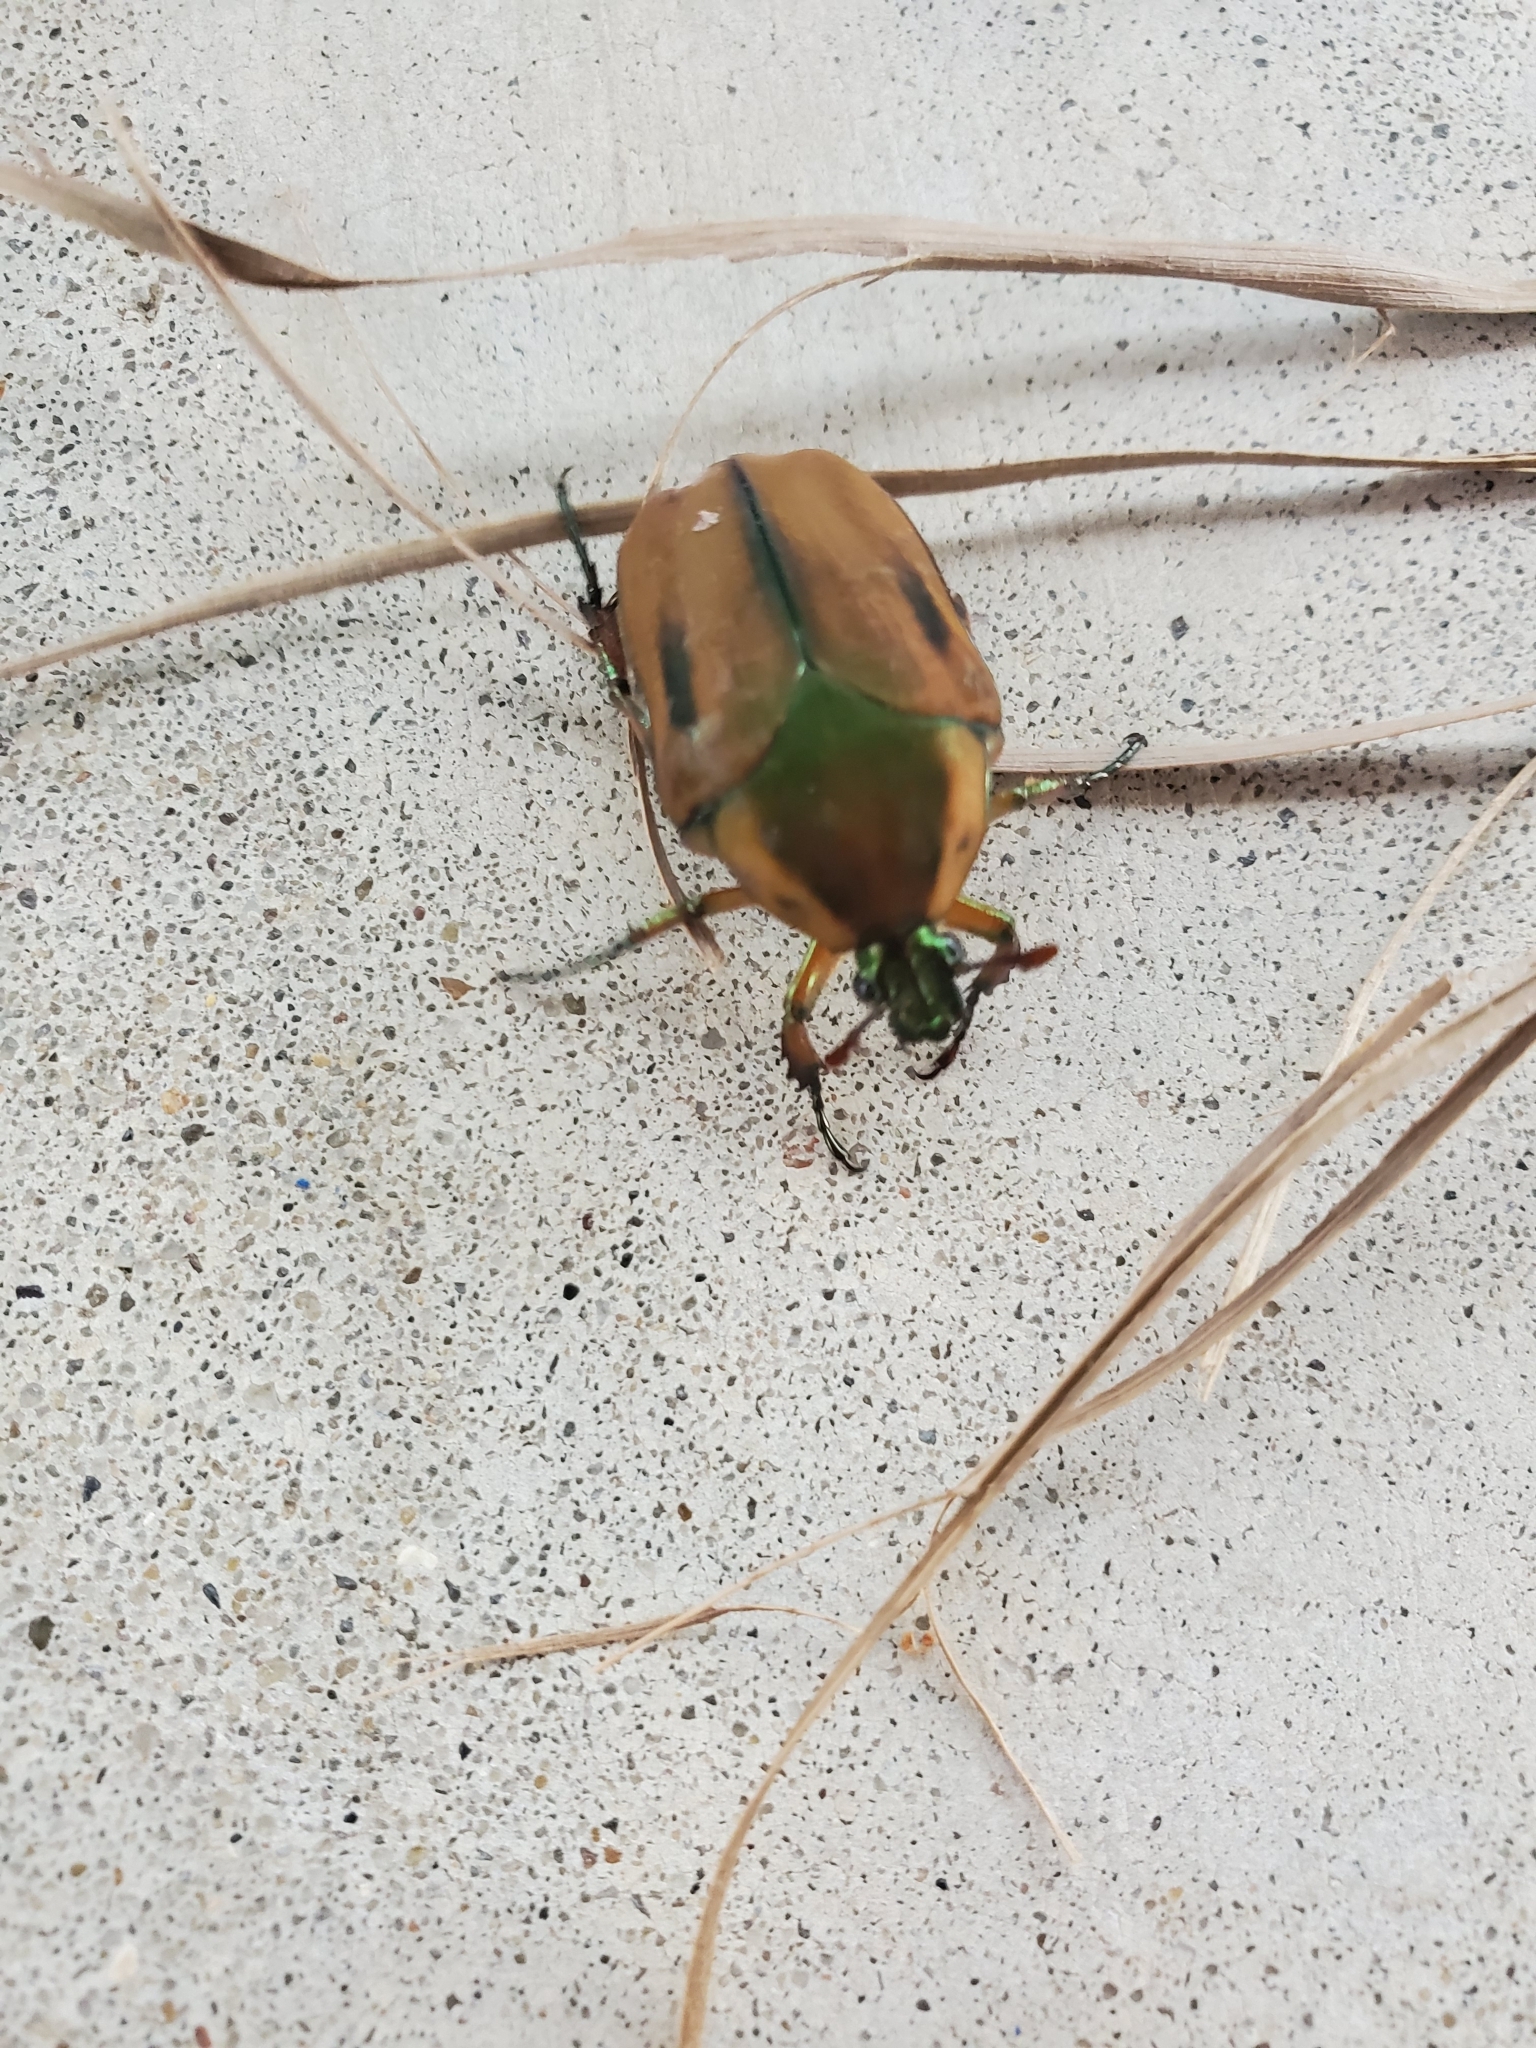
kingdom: Animalia
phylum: Arthropoda
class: Insecta
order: Coleoptera
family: Scarabaeidae
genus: Cotinis
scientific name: Cotinis nitida
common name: Common green june beetle
